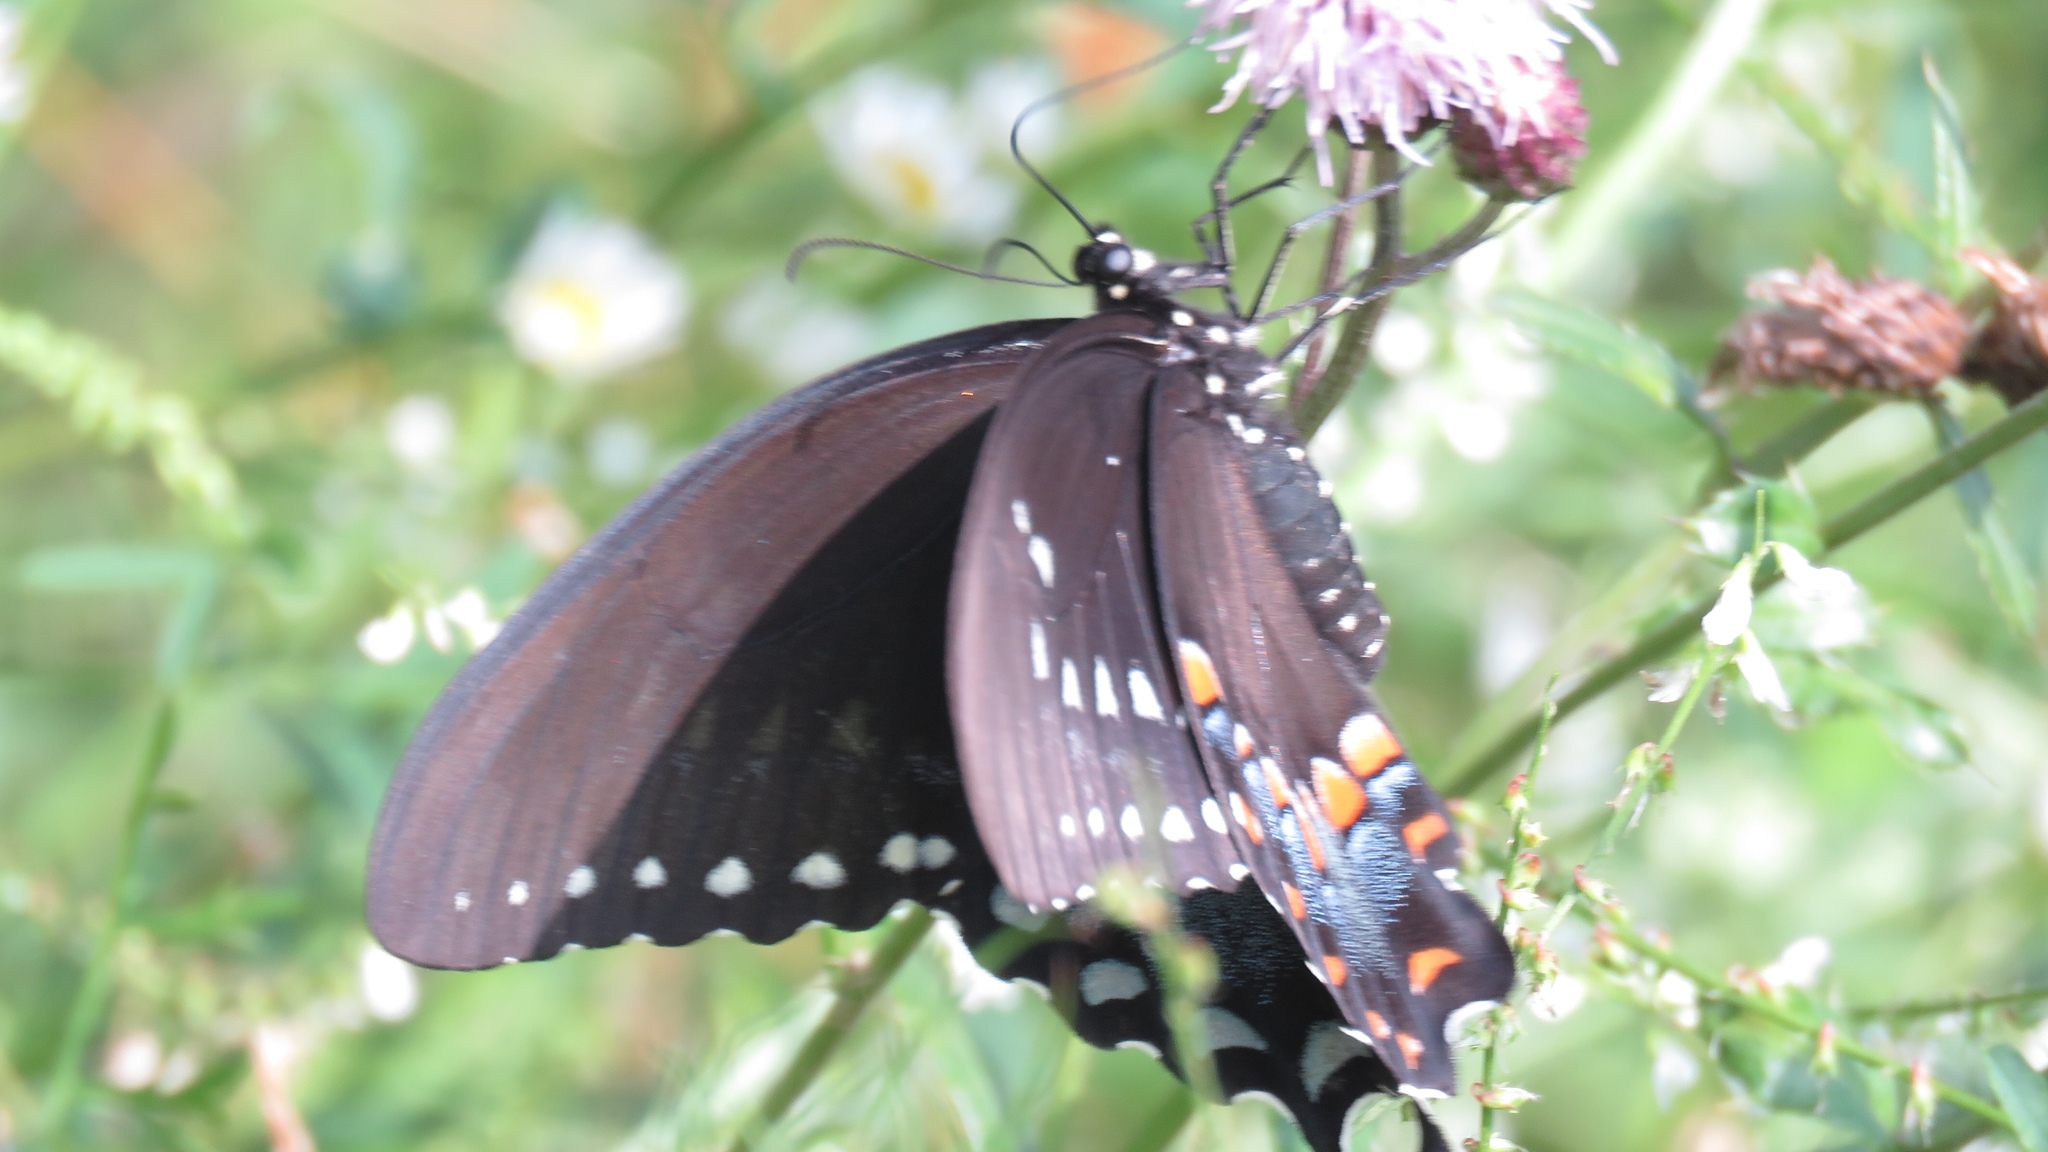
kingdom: Animalia
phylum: Arthropoda
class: Insecta
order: Lepidoptera
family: Papilionidae
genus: Papilio
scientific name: Papilio troilus
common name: Spicebush swallowtail
